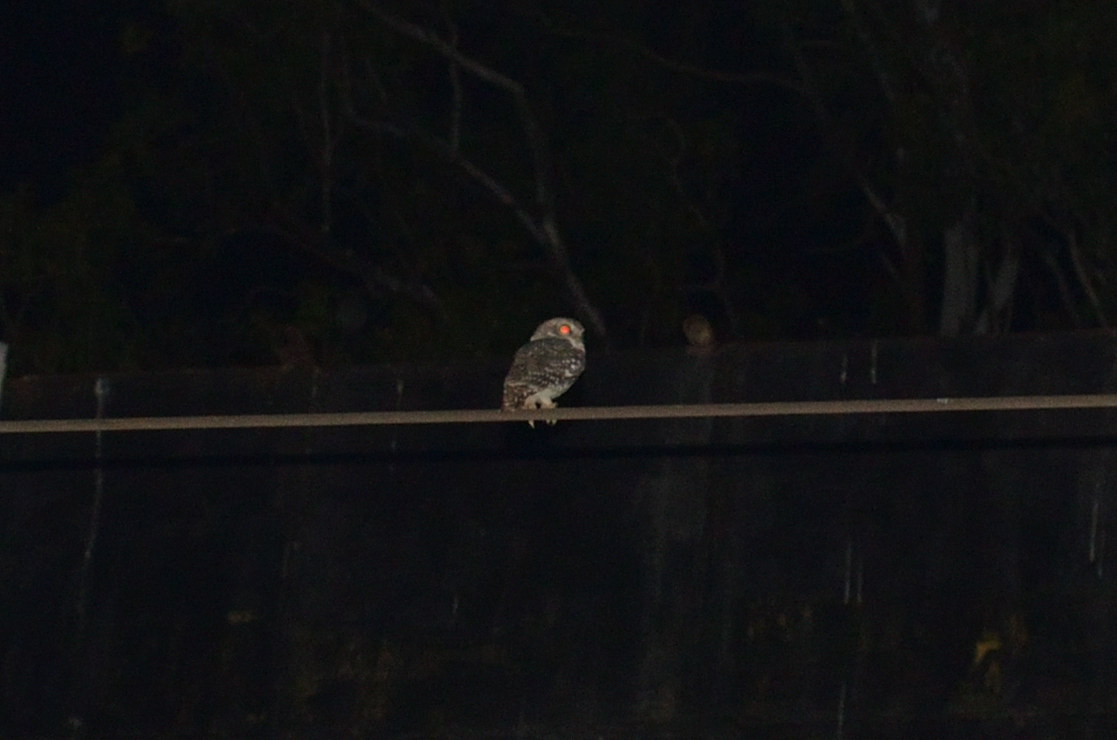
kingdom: Animalia
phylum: Chordata
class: Aves
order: Strigiformes
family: Strigidae
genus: Athene
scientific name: Athene brama
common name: Spotted owlet
